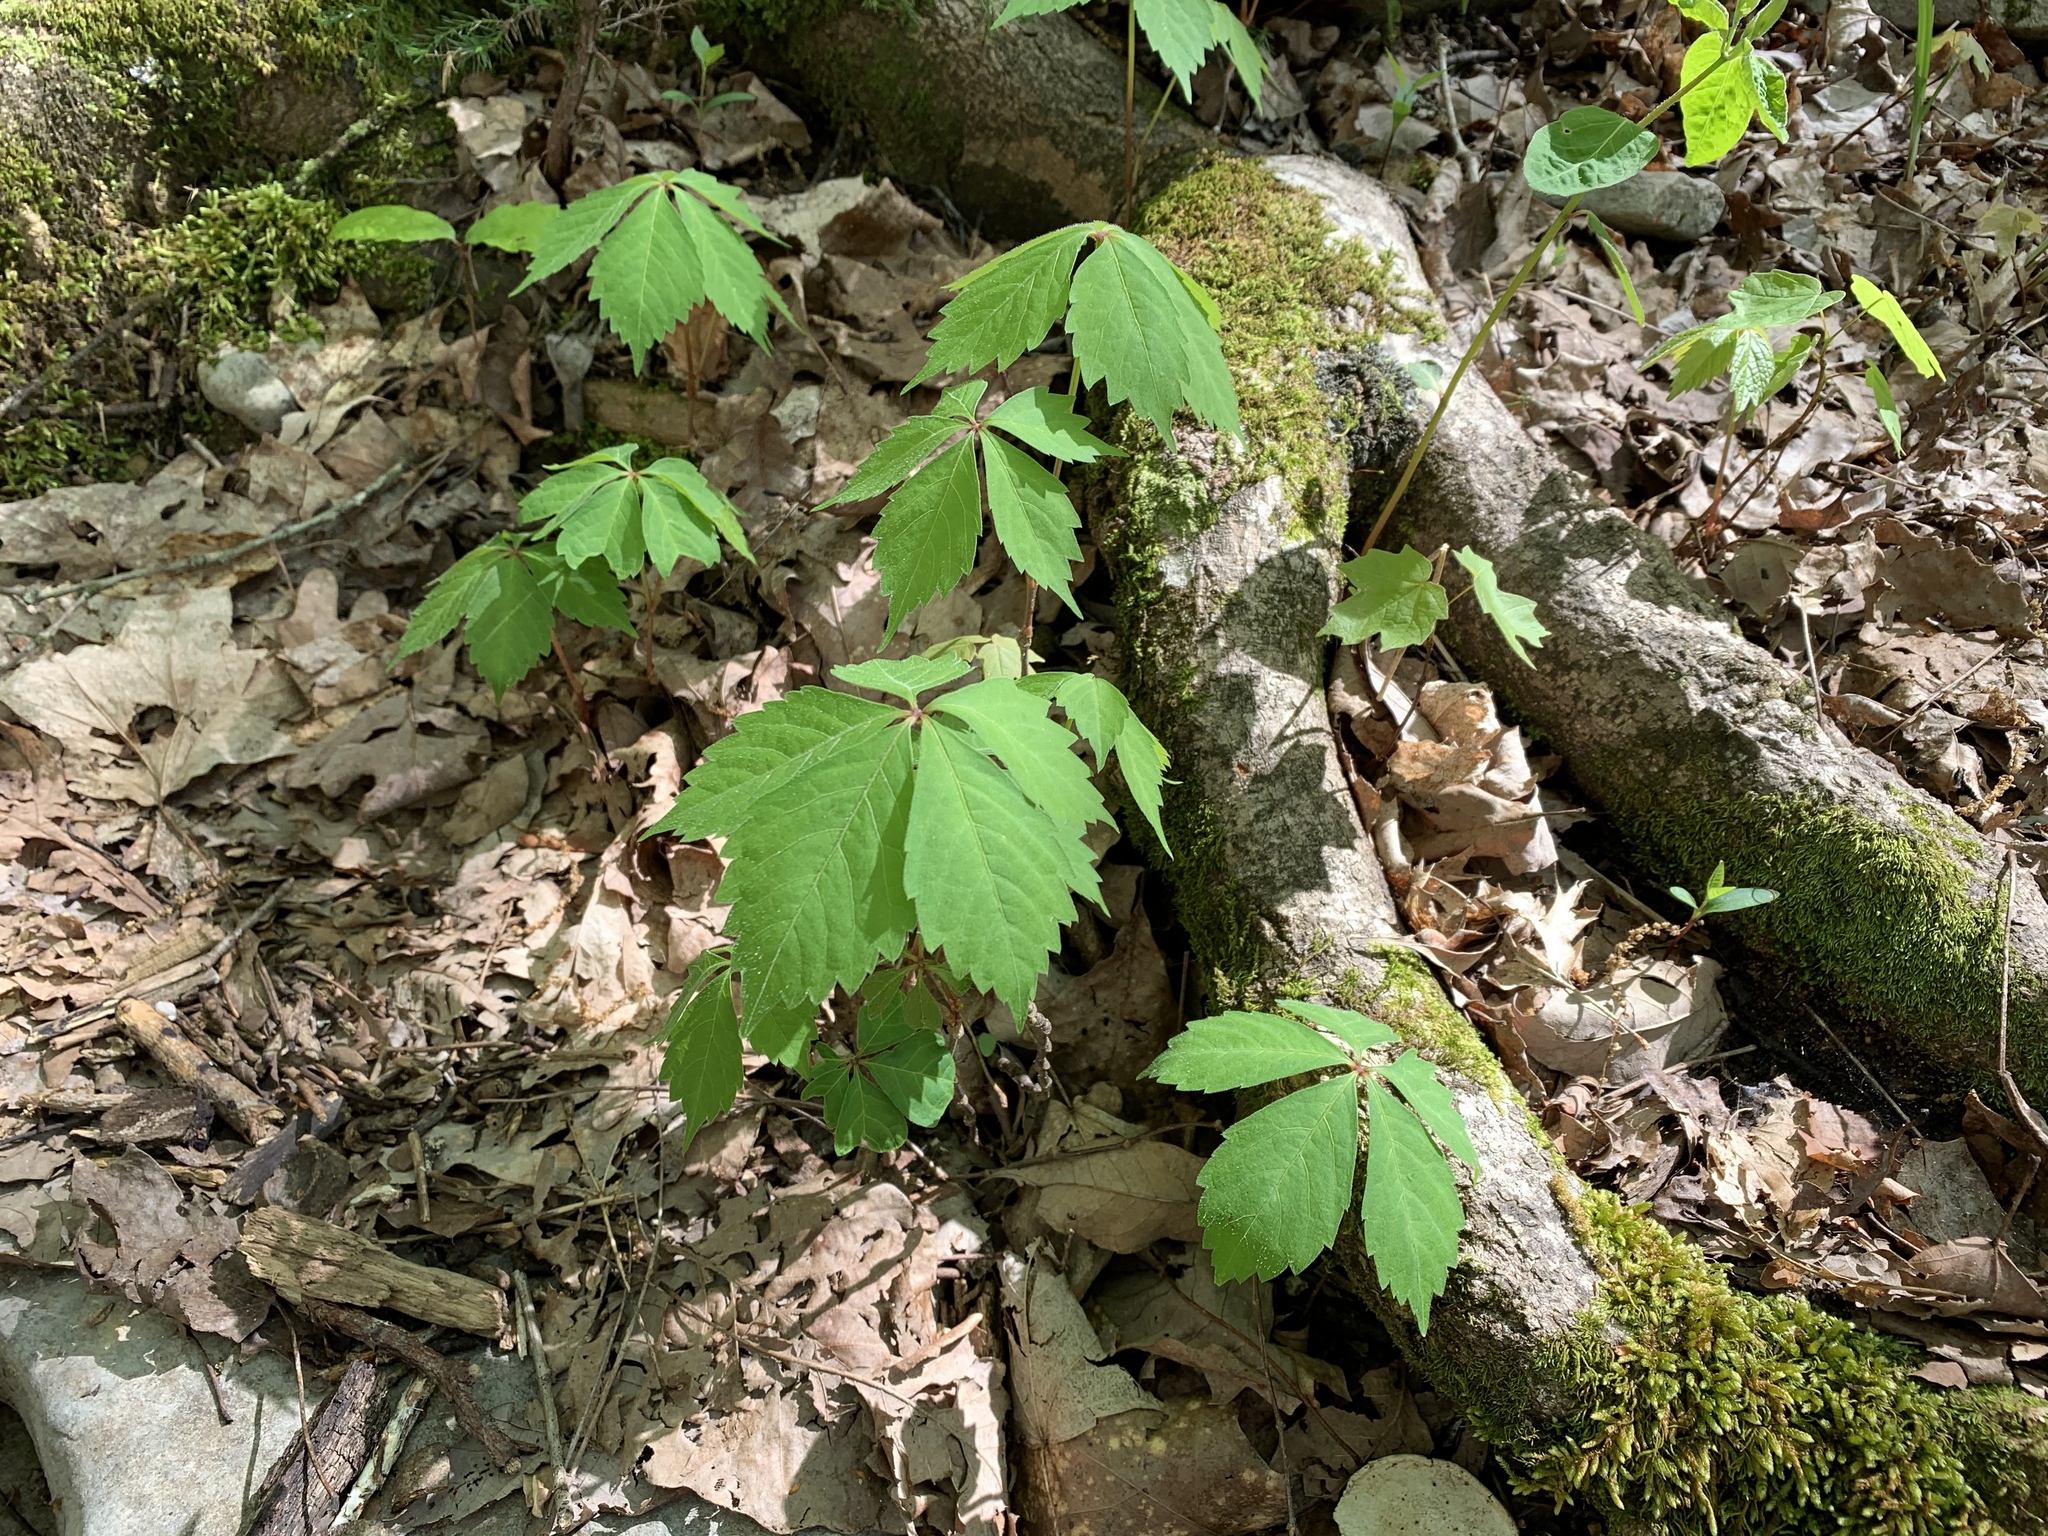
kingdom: Plantae
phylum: Tracheophyta
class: Magnoliopsida
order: Vitales
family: Vitaceae
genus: Parthenocissus
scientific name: Parthenocissus quinquefolia
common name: Virginia-creeper
